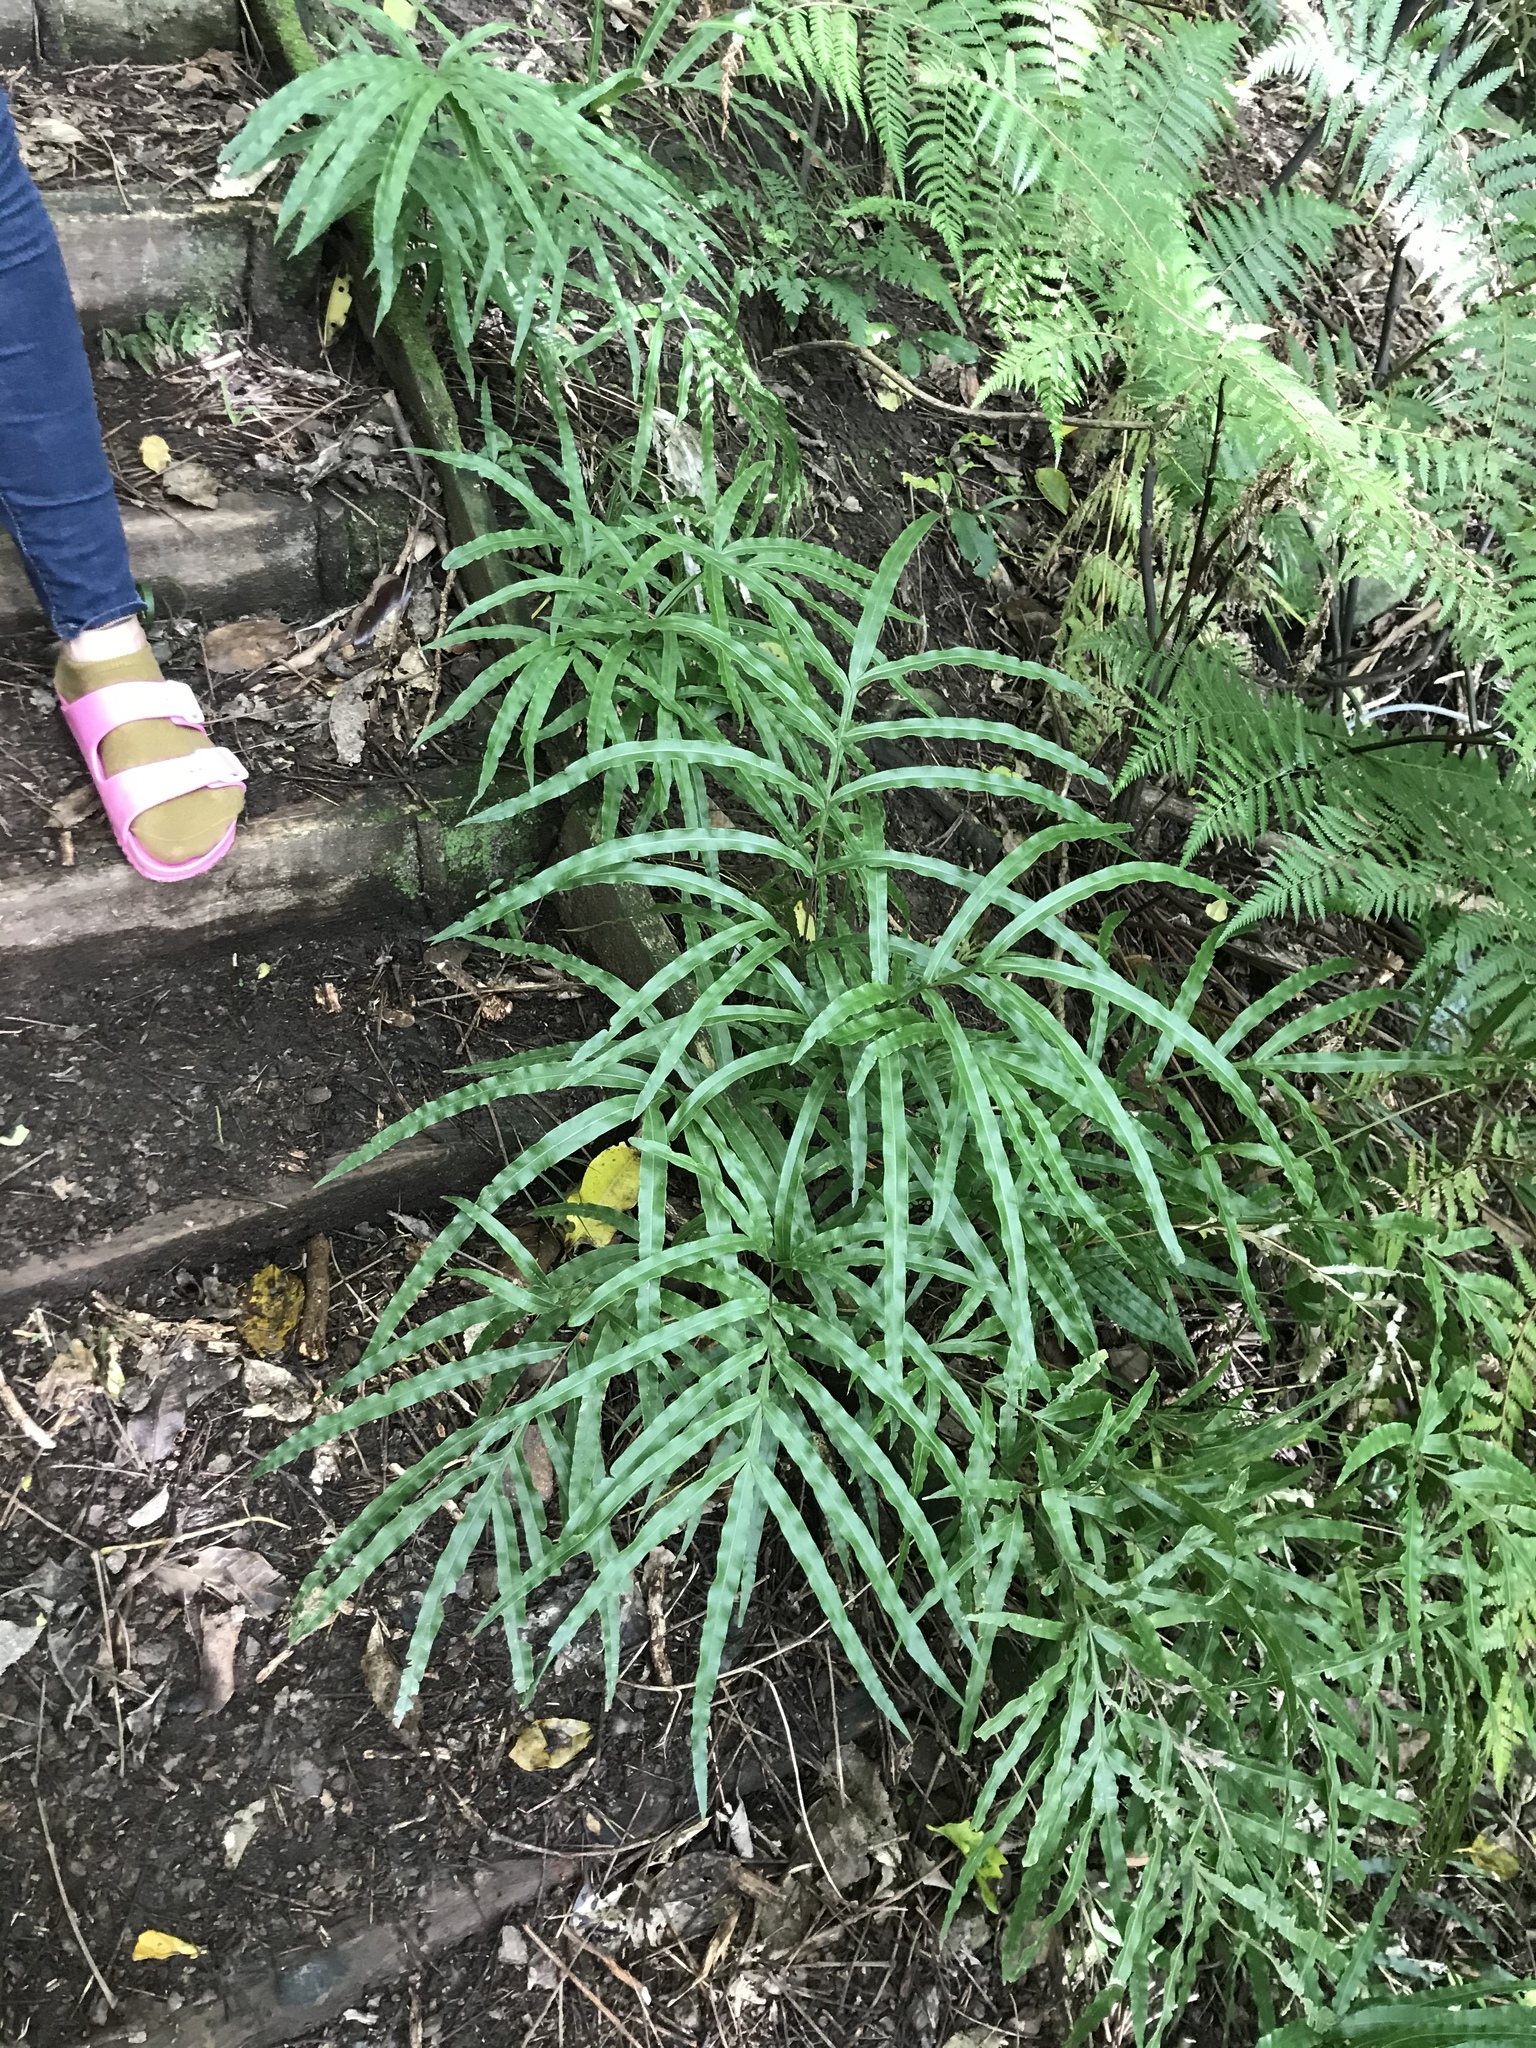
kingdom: Plantae
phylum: Tracheophyta
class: Polypodiopsida
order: Polypodiales
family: Pteridaceae
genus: Pteris
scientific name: Pteris cretica
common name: Ribbon fern
